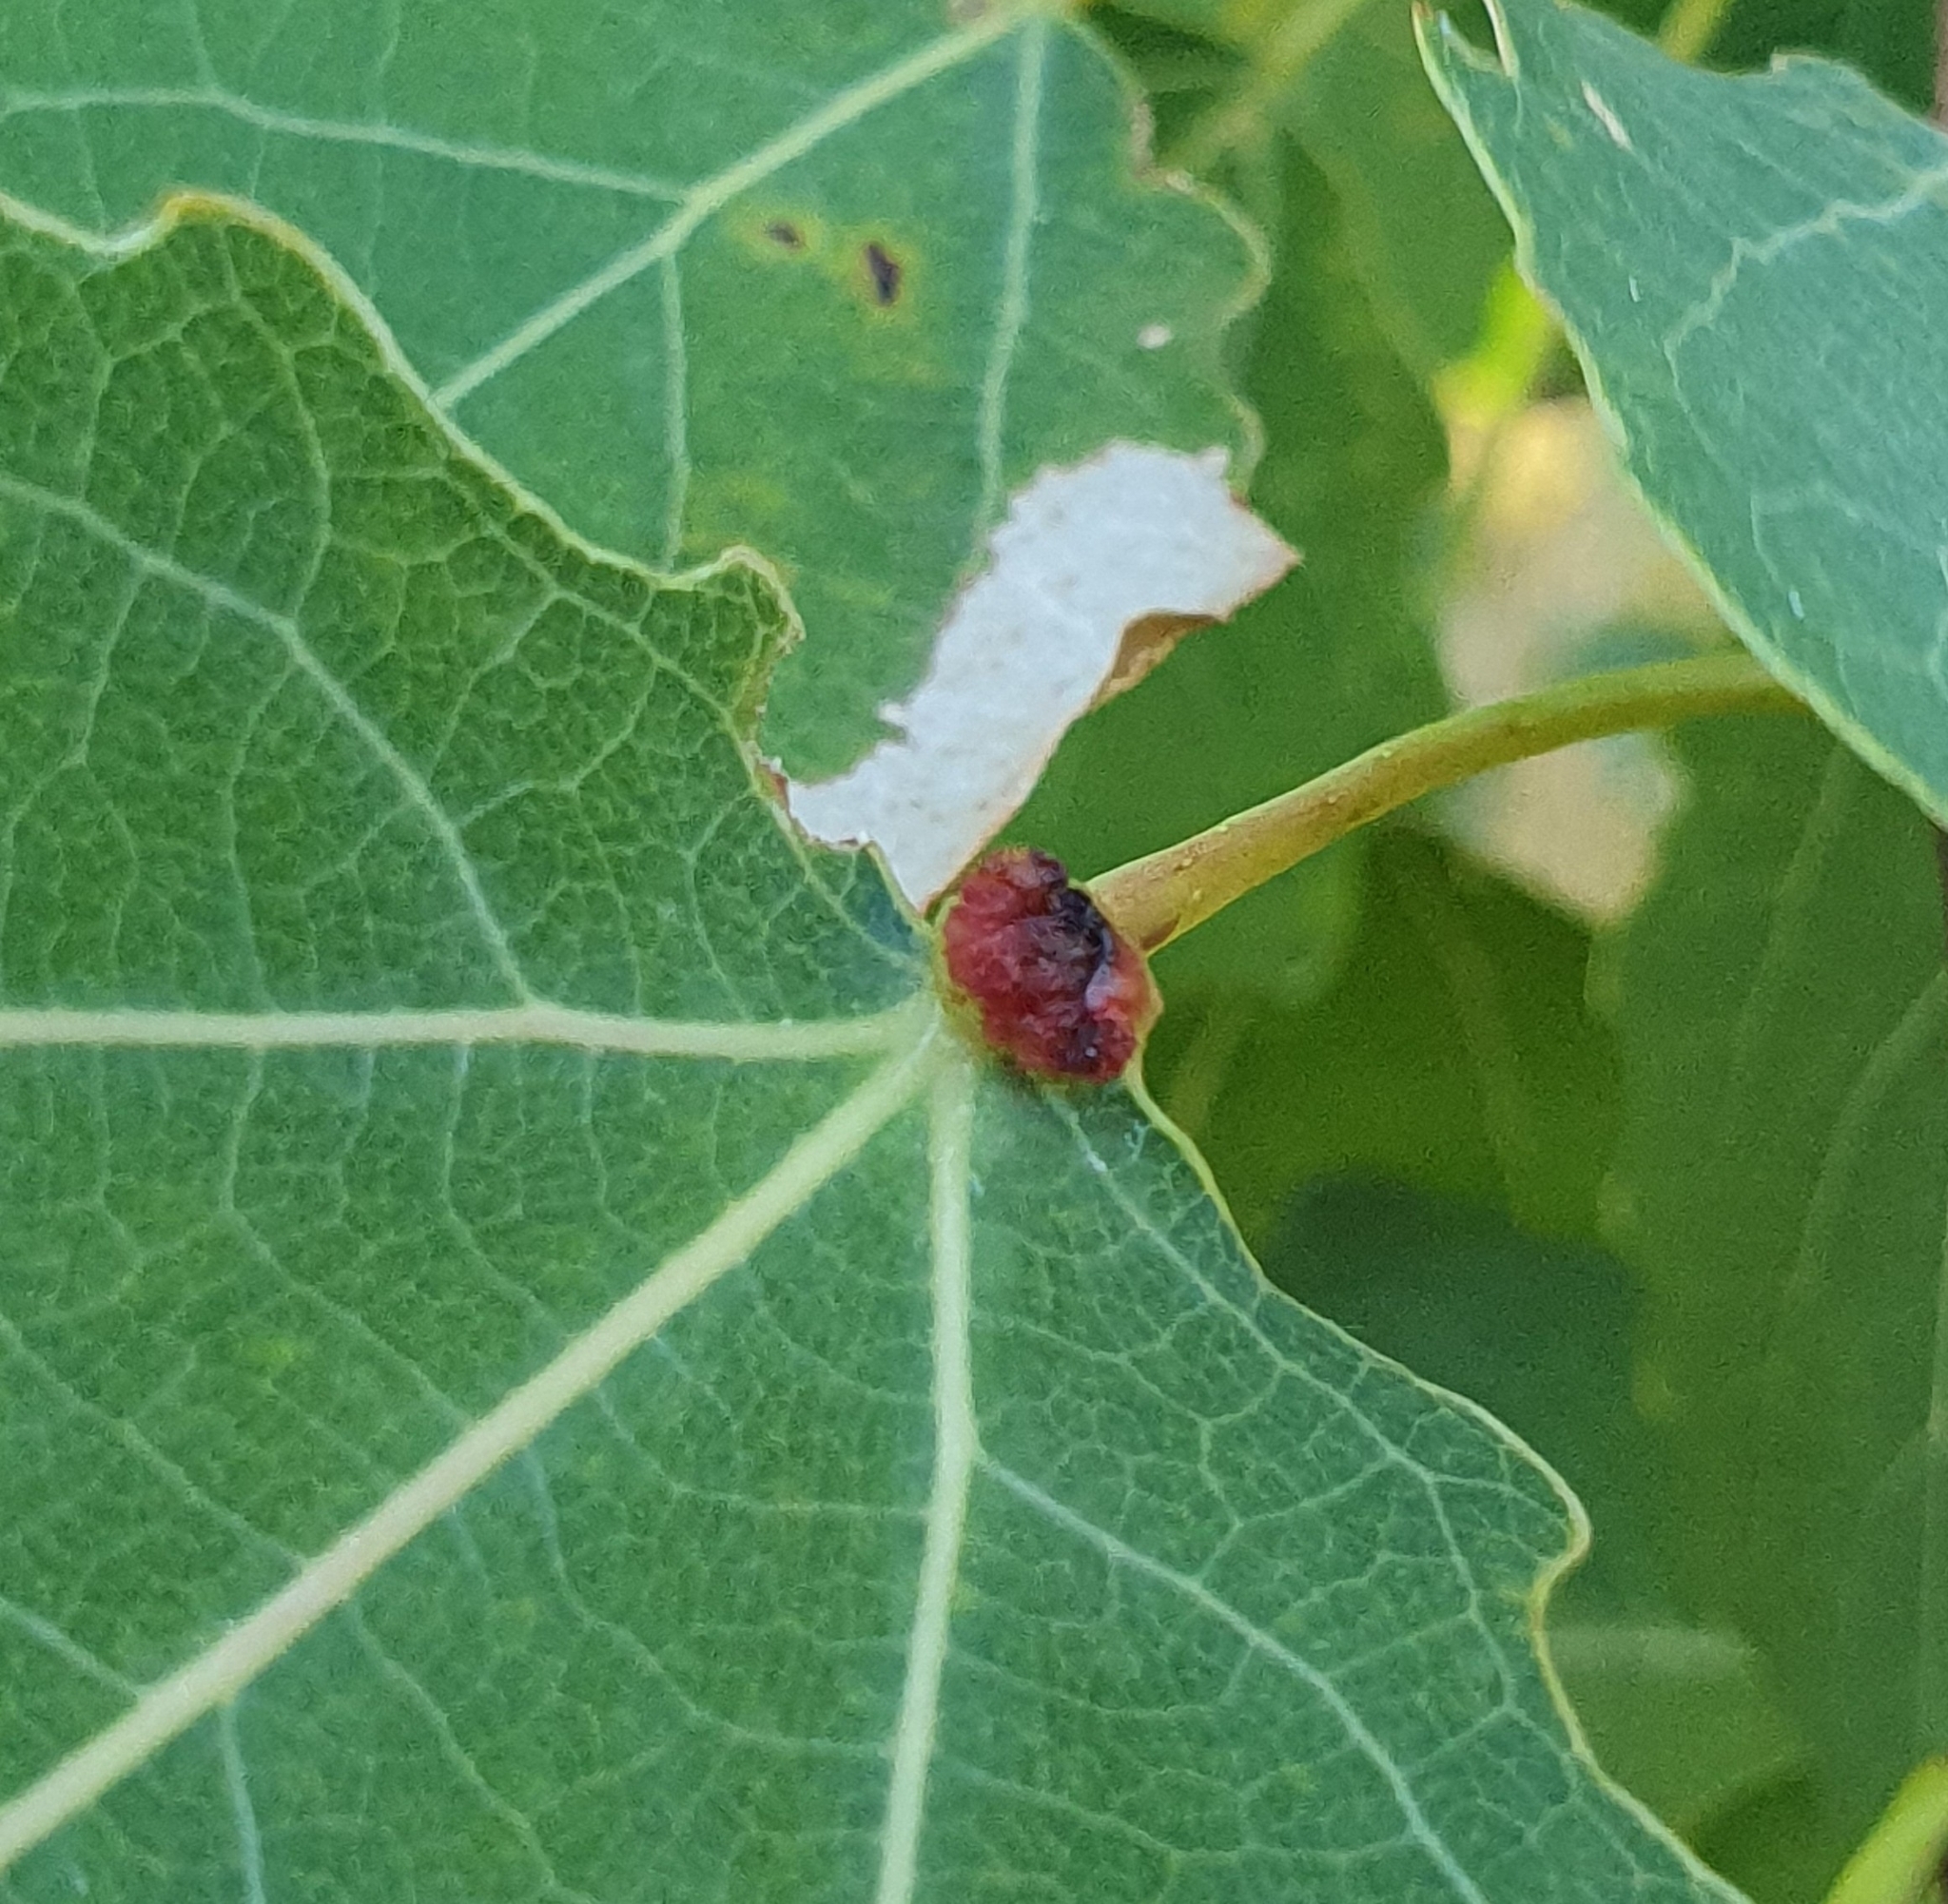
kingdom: Animalia
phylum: Arthropoda
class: Arachnida
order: Trombidiformes
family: Eriophyidae
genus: Eriophyes
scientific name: Eriophyes diversipunctatus
